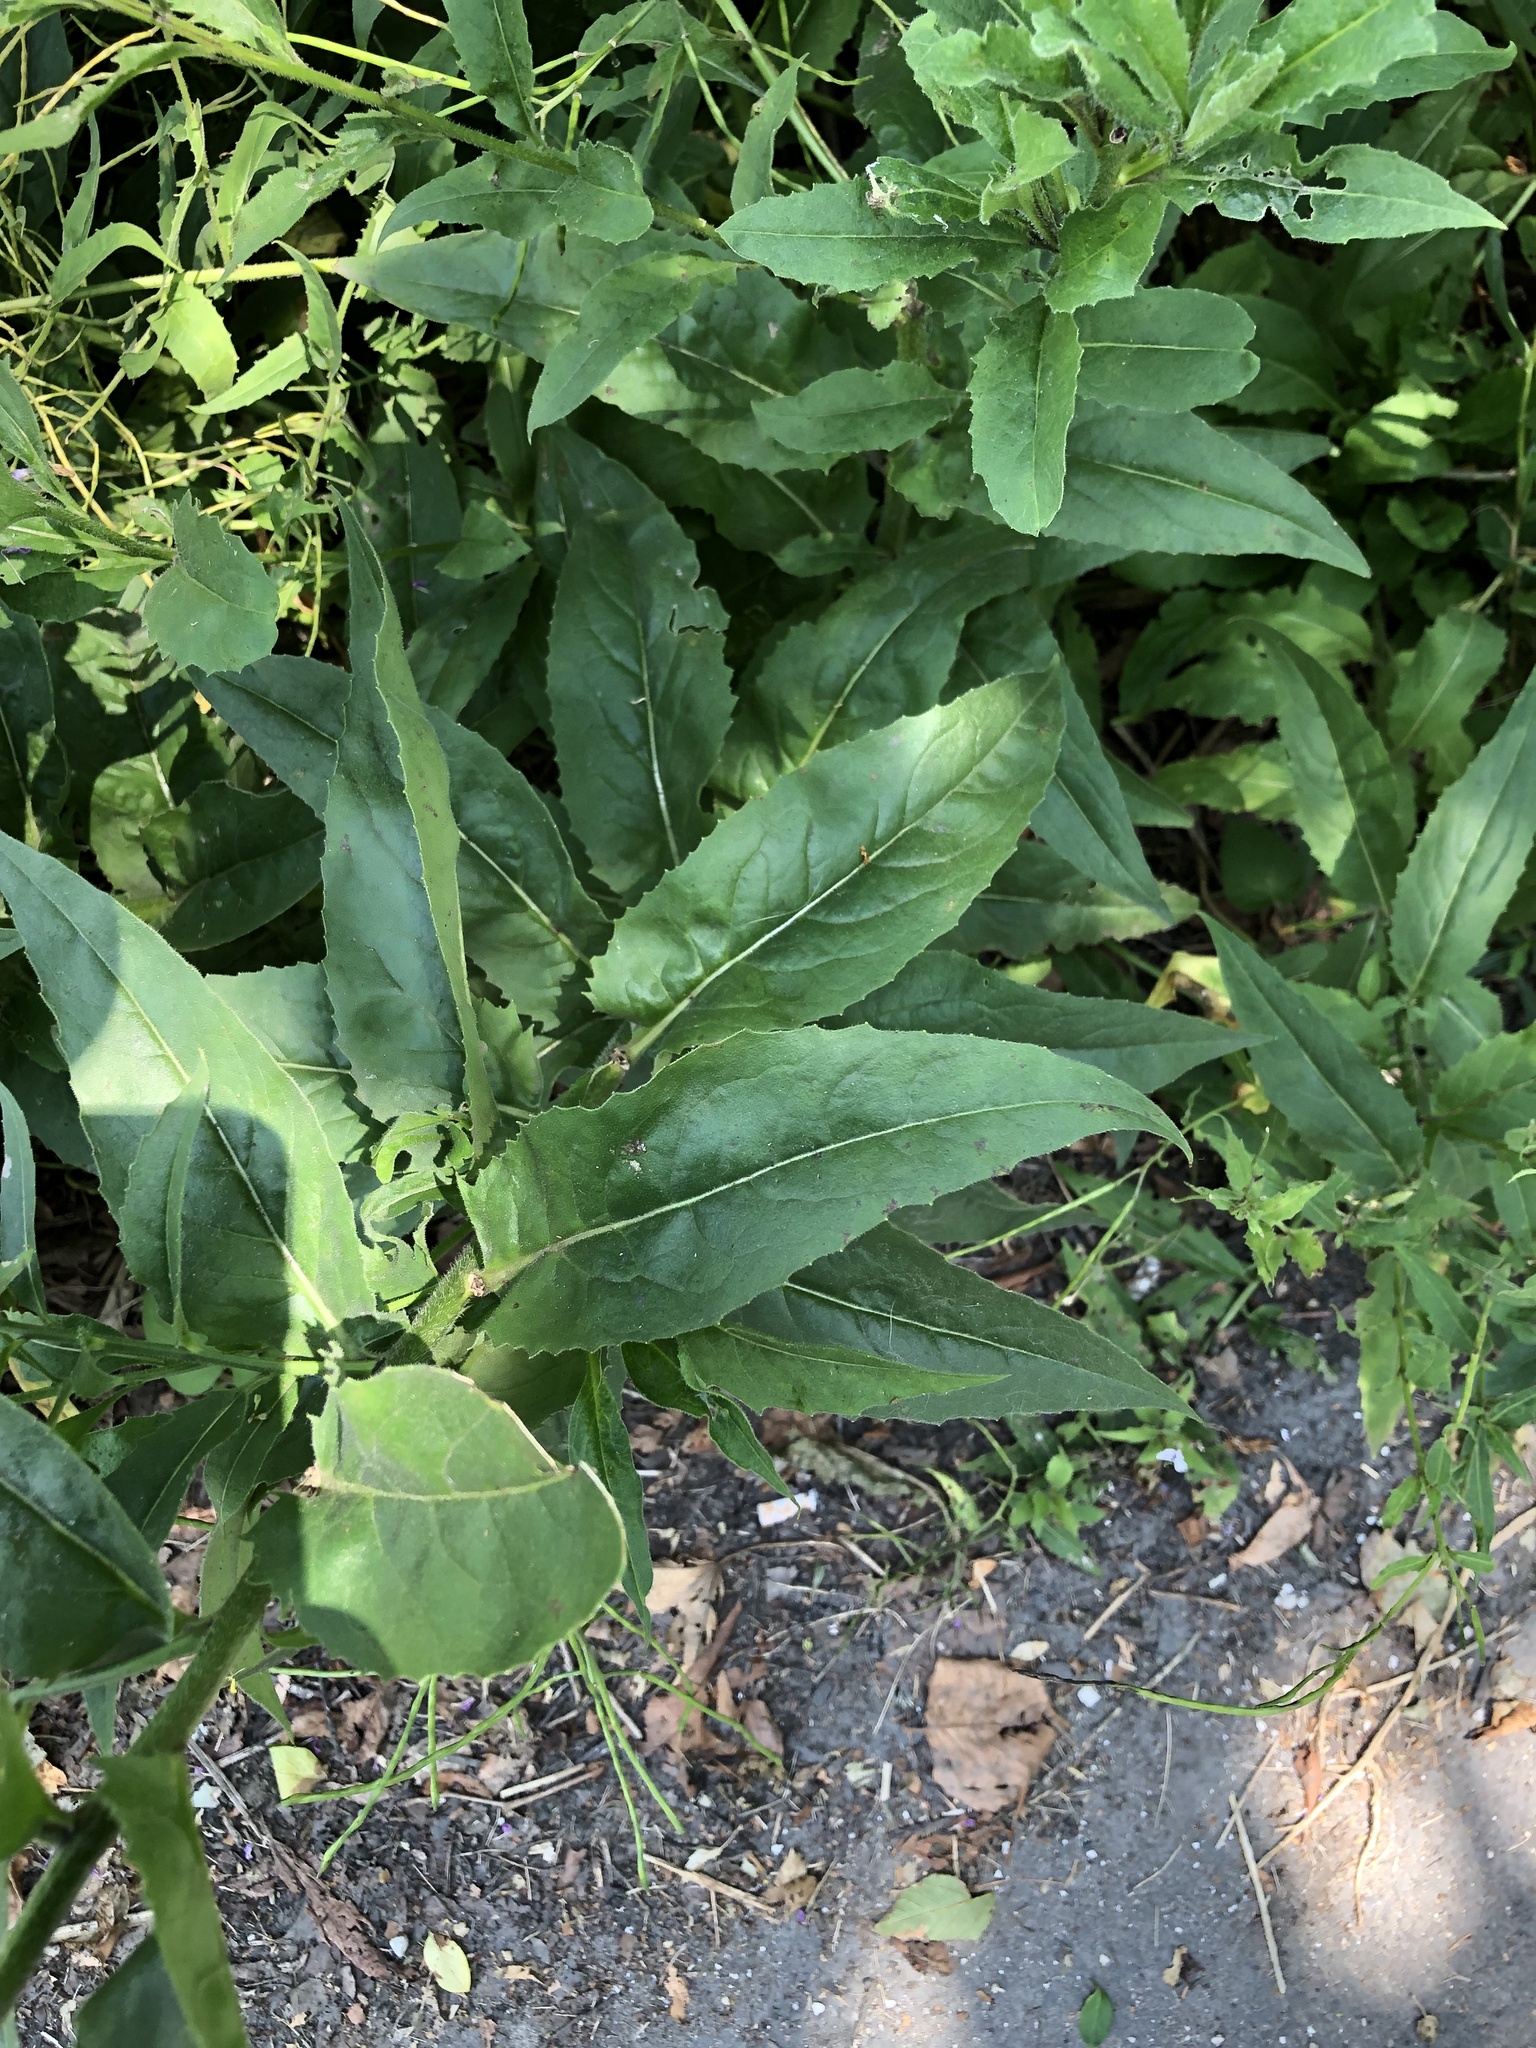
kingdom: Plantae
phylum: Tracheophyta
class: Magnoliopsida
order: Brassicales
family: Brassicaceae
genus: Hesperis
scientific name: Hesperis matronalis
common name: Dame's-violet
